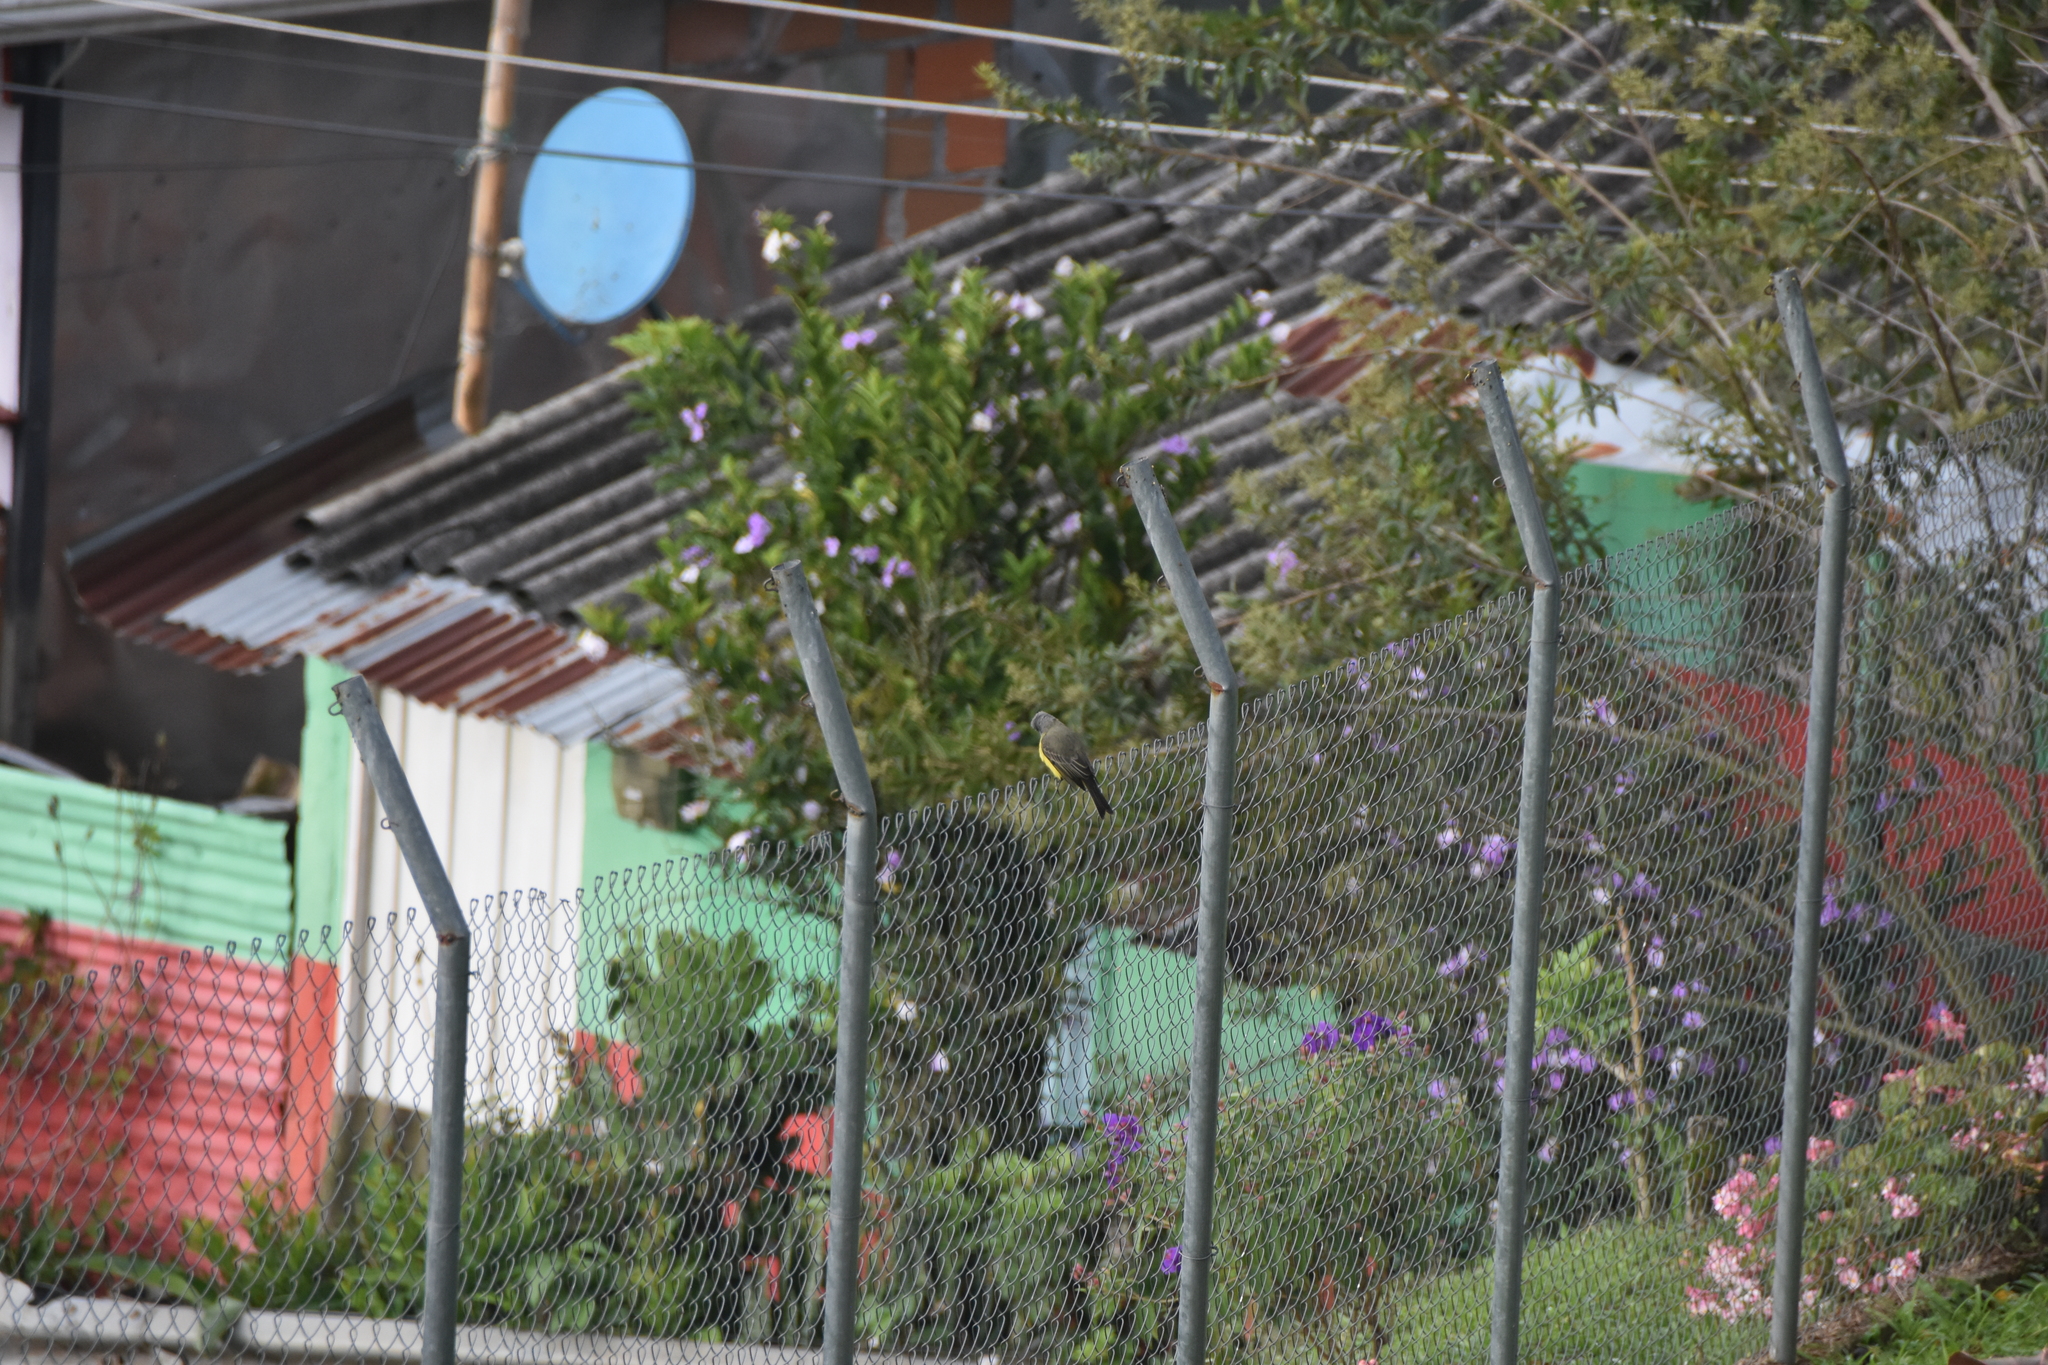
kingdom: Animalia
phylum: Chordata
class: Aves
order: Passeriformes
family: Tyrannidae
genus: Tyrannus
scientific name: Tyrannus melancholicus
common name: Tropical kingbird
